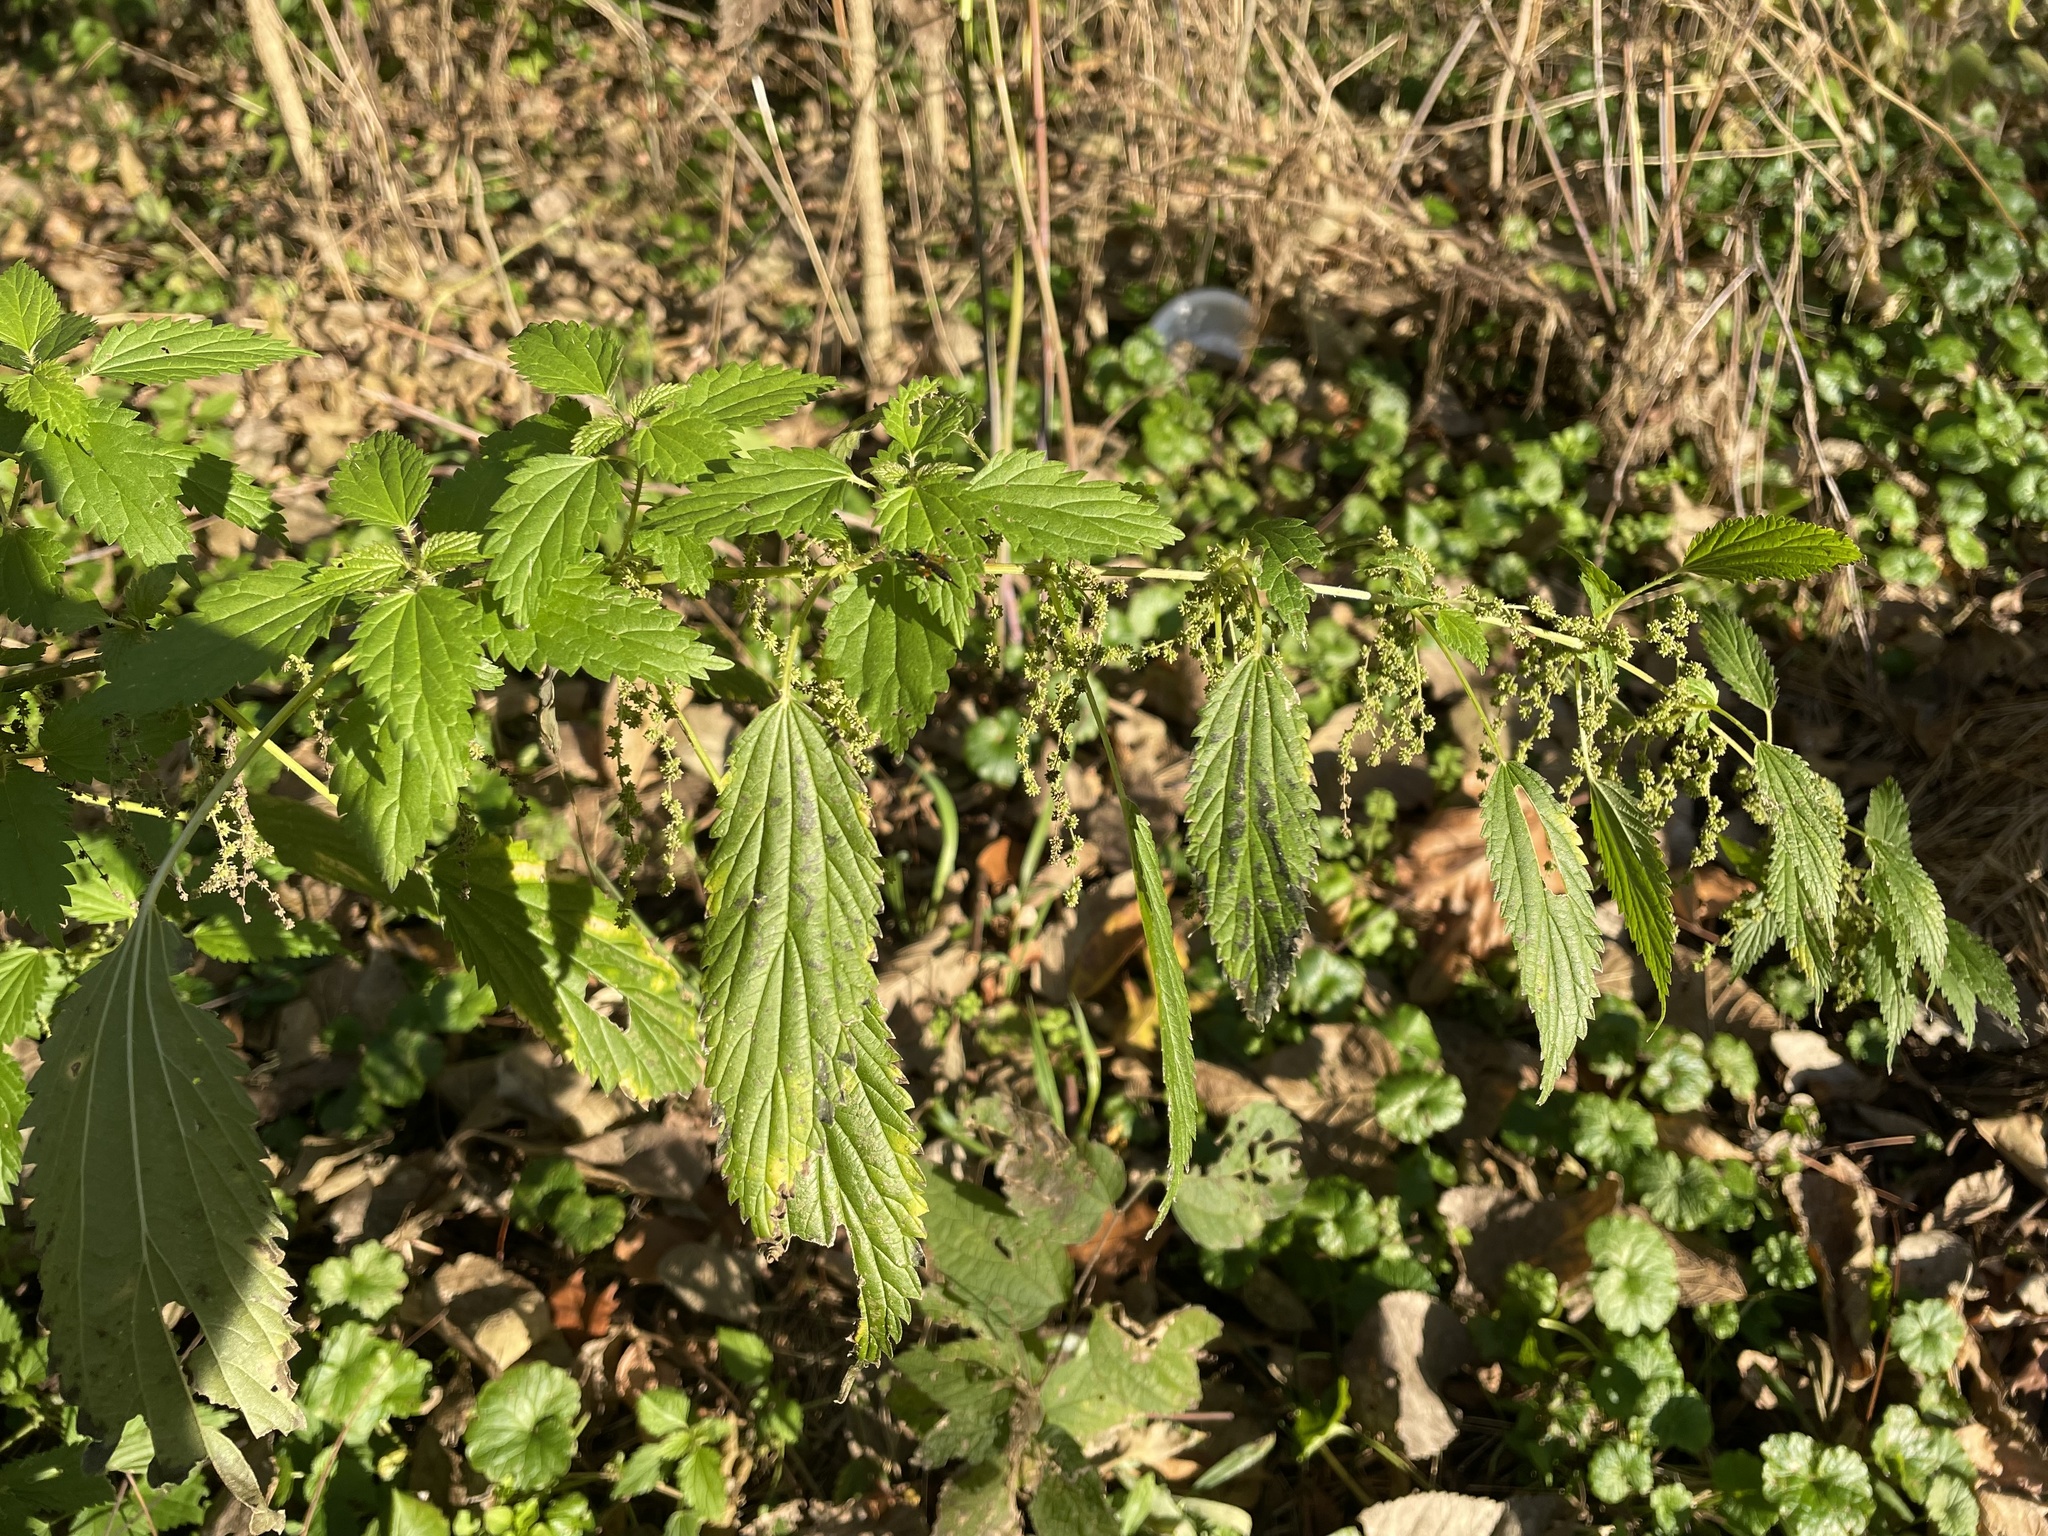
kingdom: Plantae
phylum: Tracheophyta
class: Magnoliopsida
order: Rosales
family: Urticaceae
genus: Urtica
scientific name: Urtica dioica
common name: Common nettle
